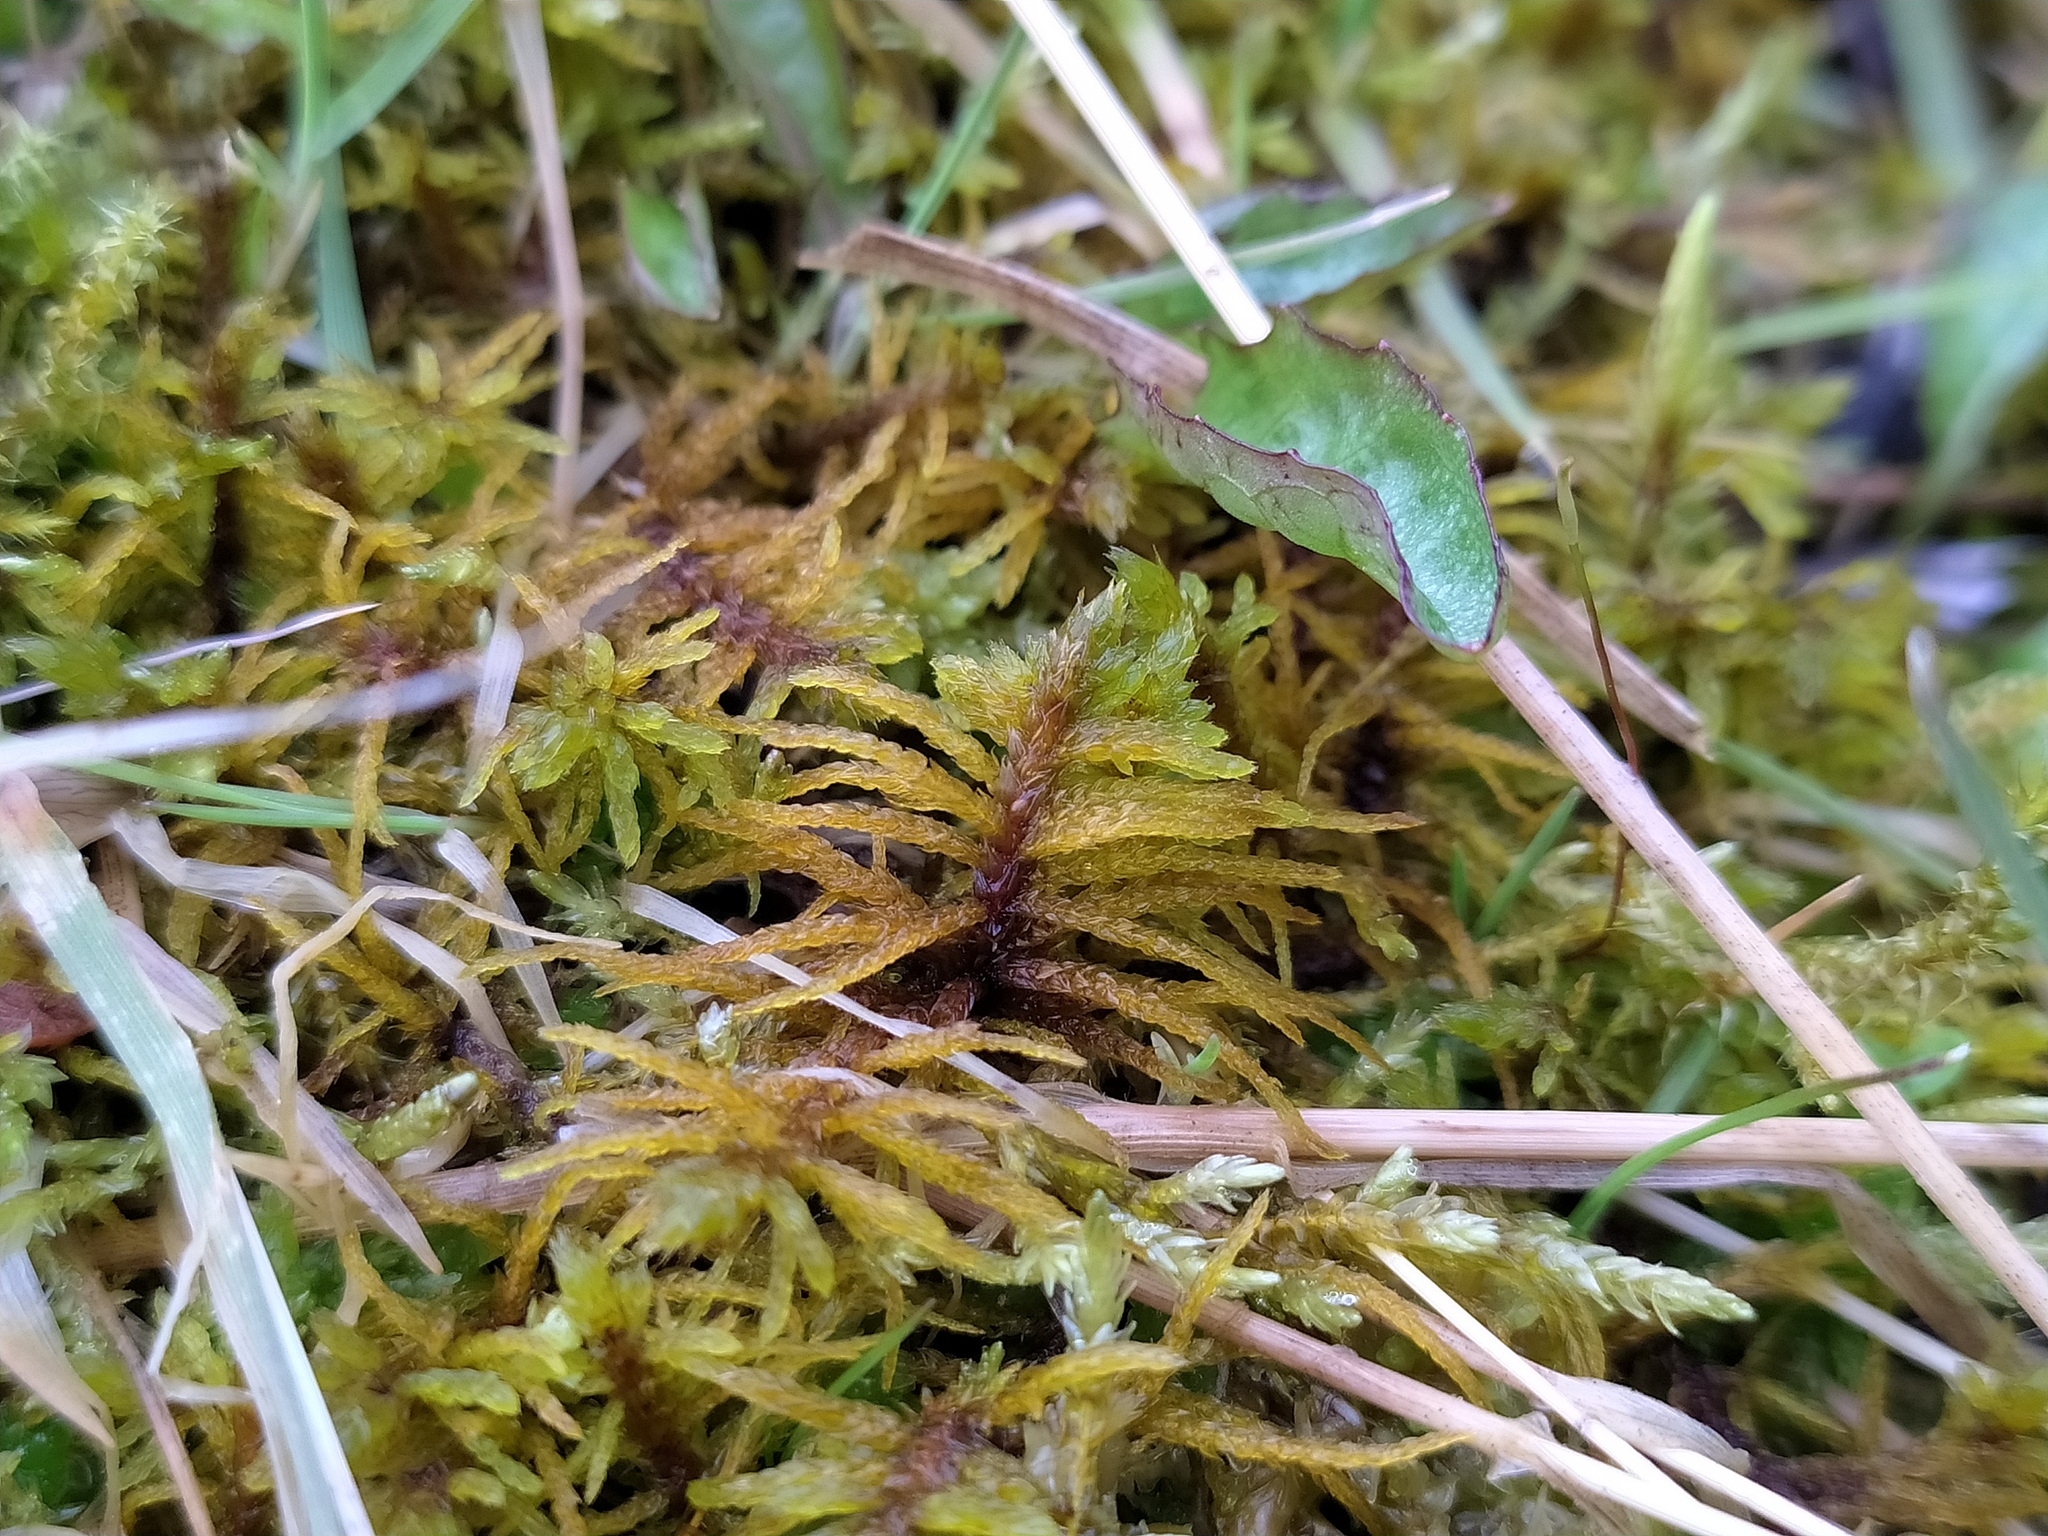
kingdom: Plantae
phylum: Bryophyta
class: Bryopsida
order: Hypnales
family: Helodiaceae
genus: Helodium
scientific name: Helodium blandowii
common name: Blandow's tamarisk-moss
